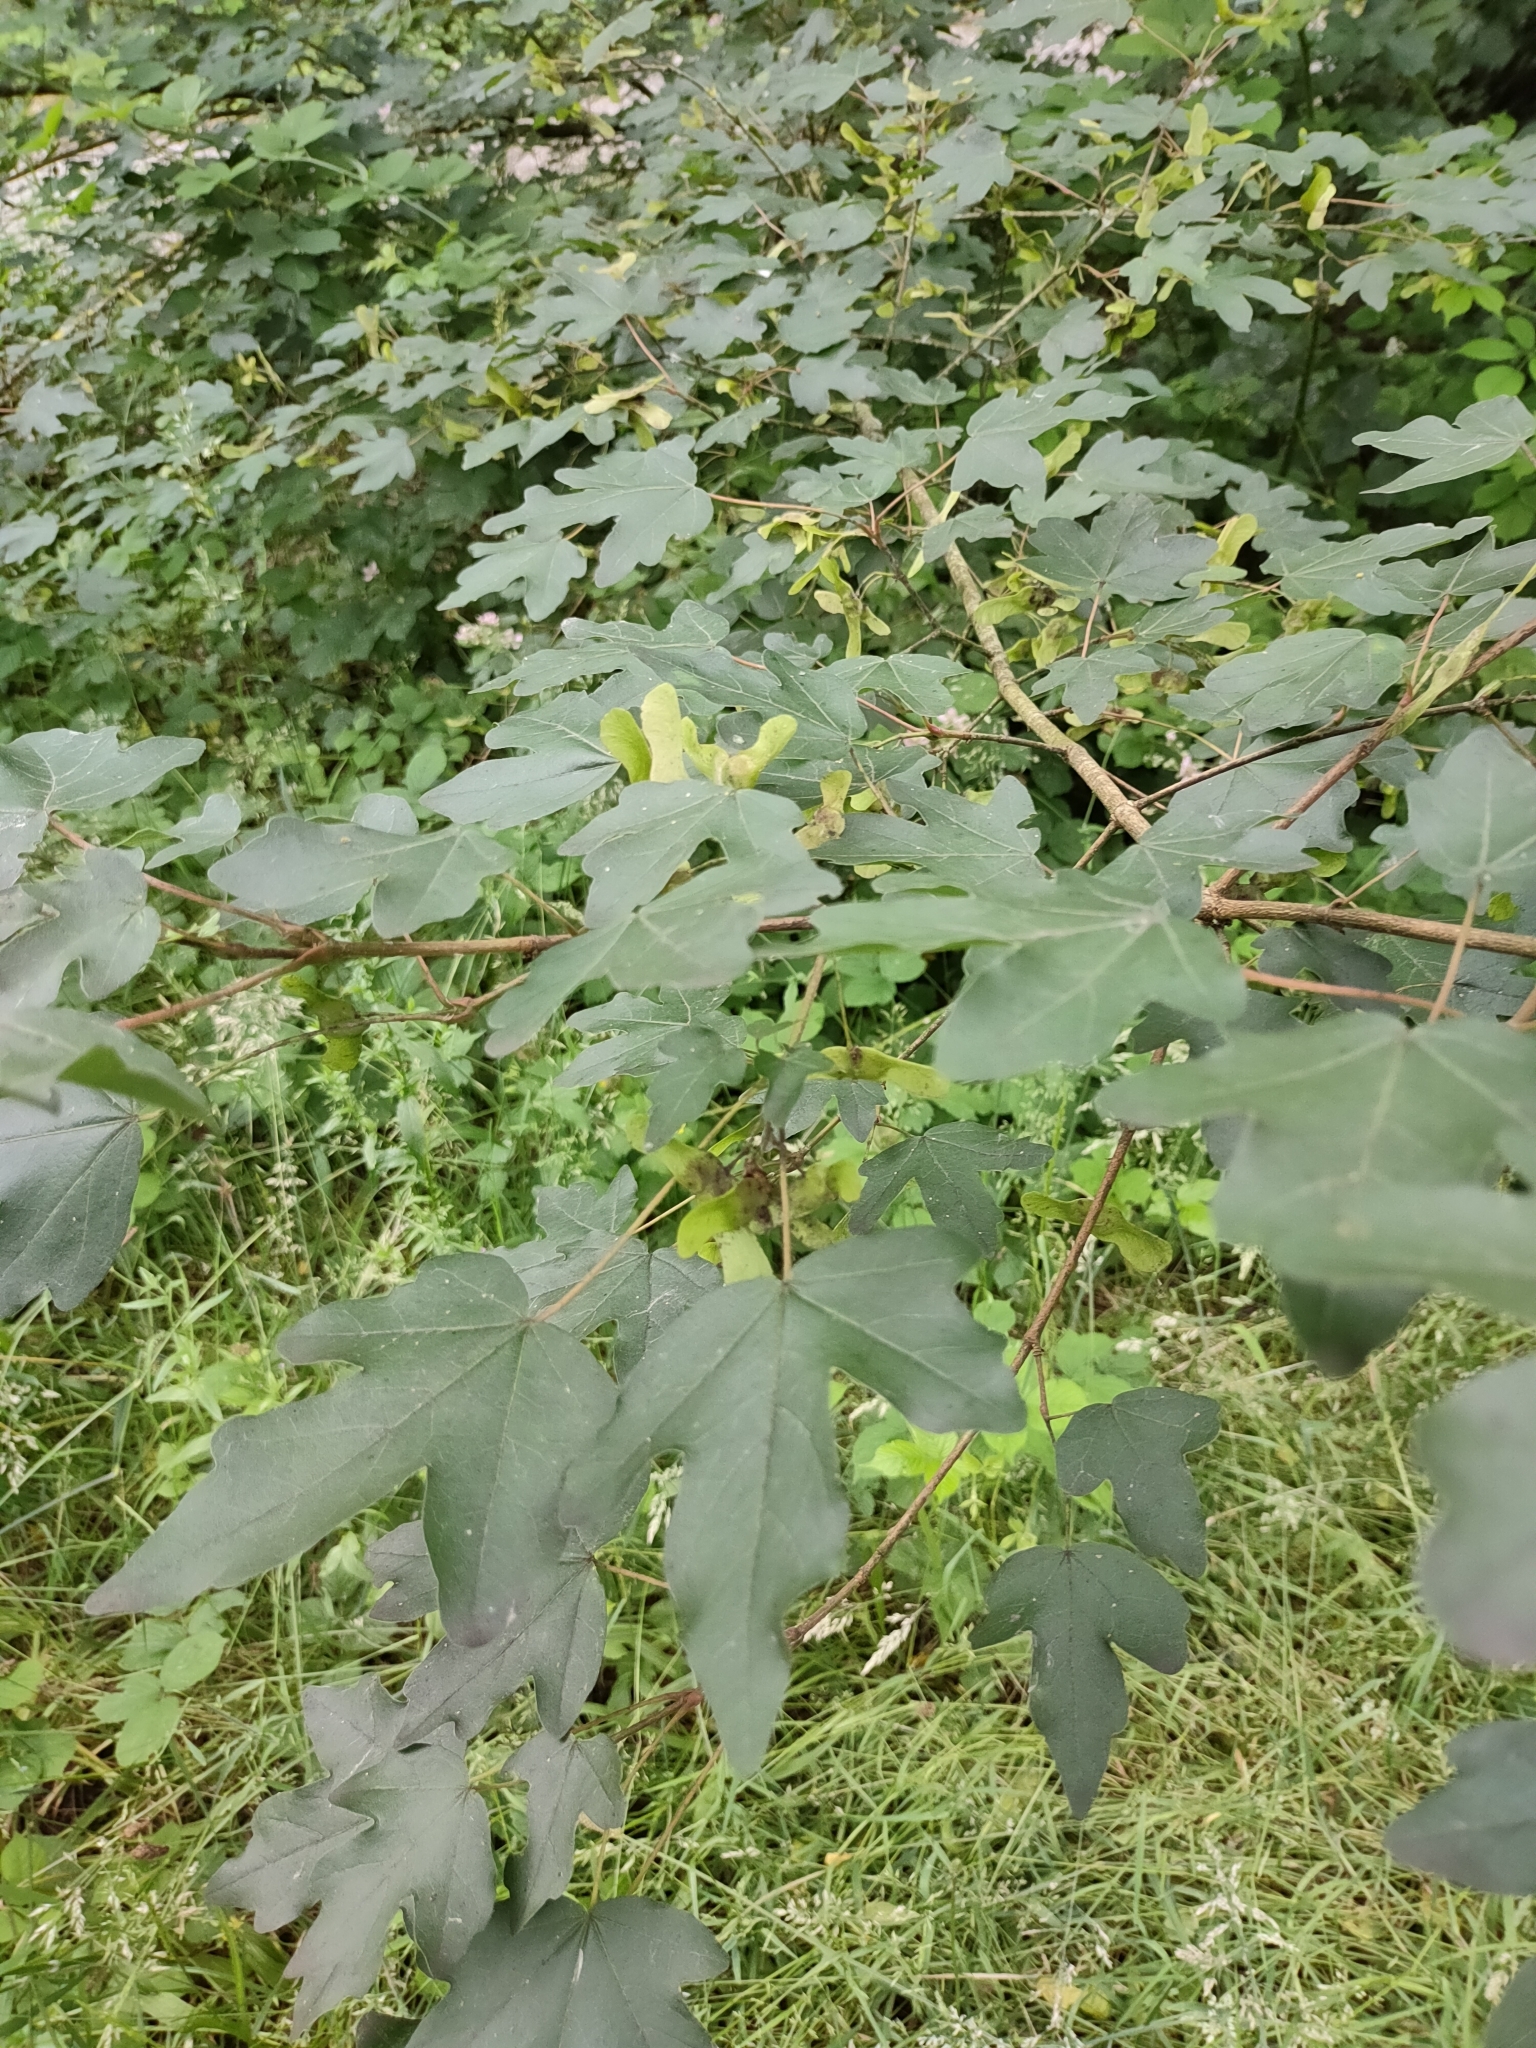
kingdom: Plantae
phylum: Tracheophyta
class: Magnoliopsida
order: Sapindales
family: Sapindaceae
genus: Acer
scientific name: Acer campestre
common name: Field maple
